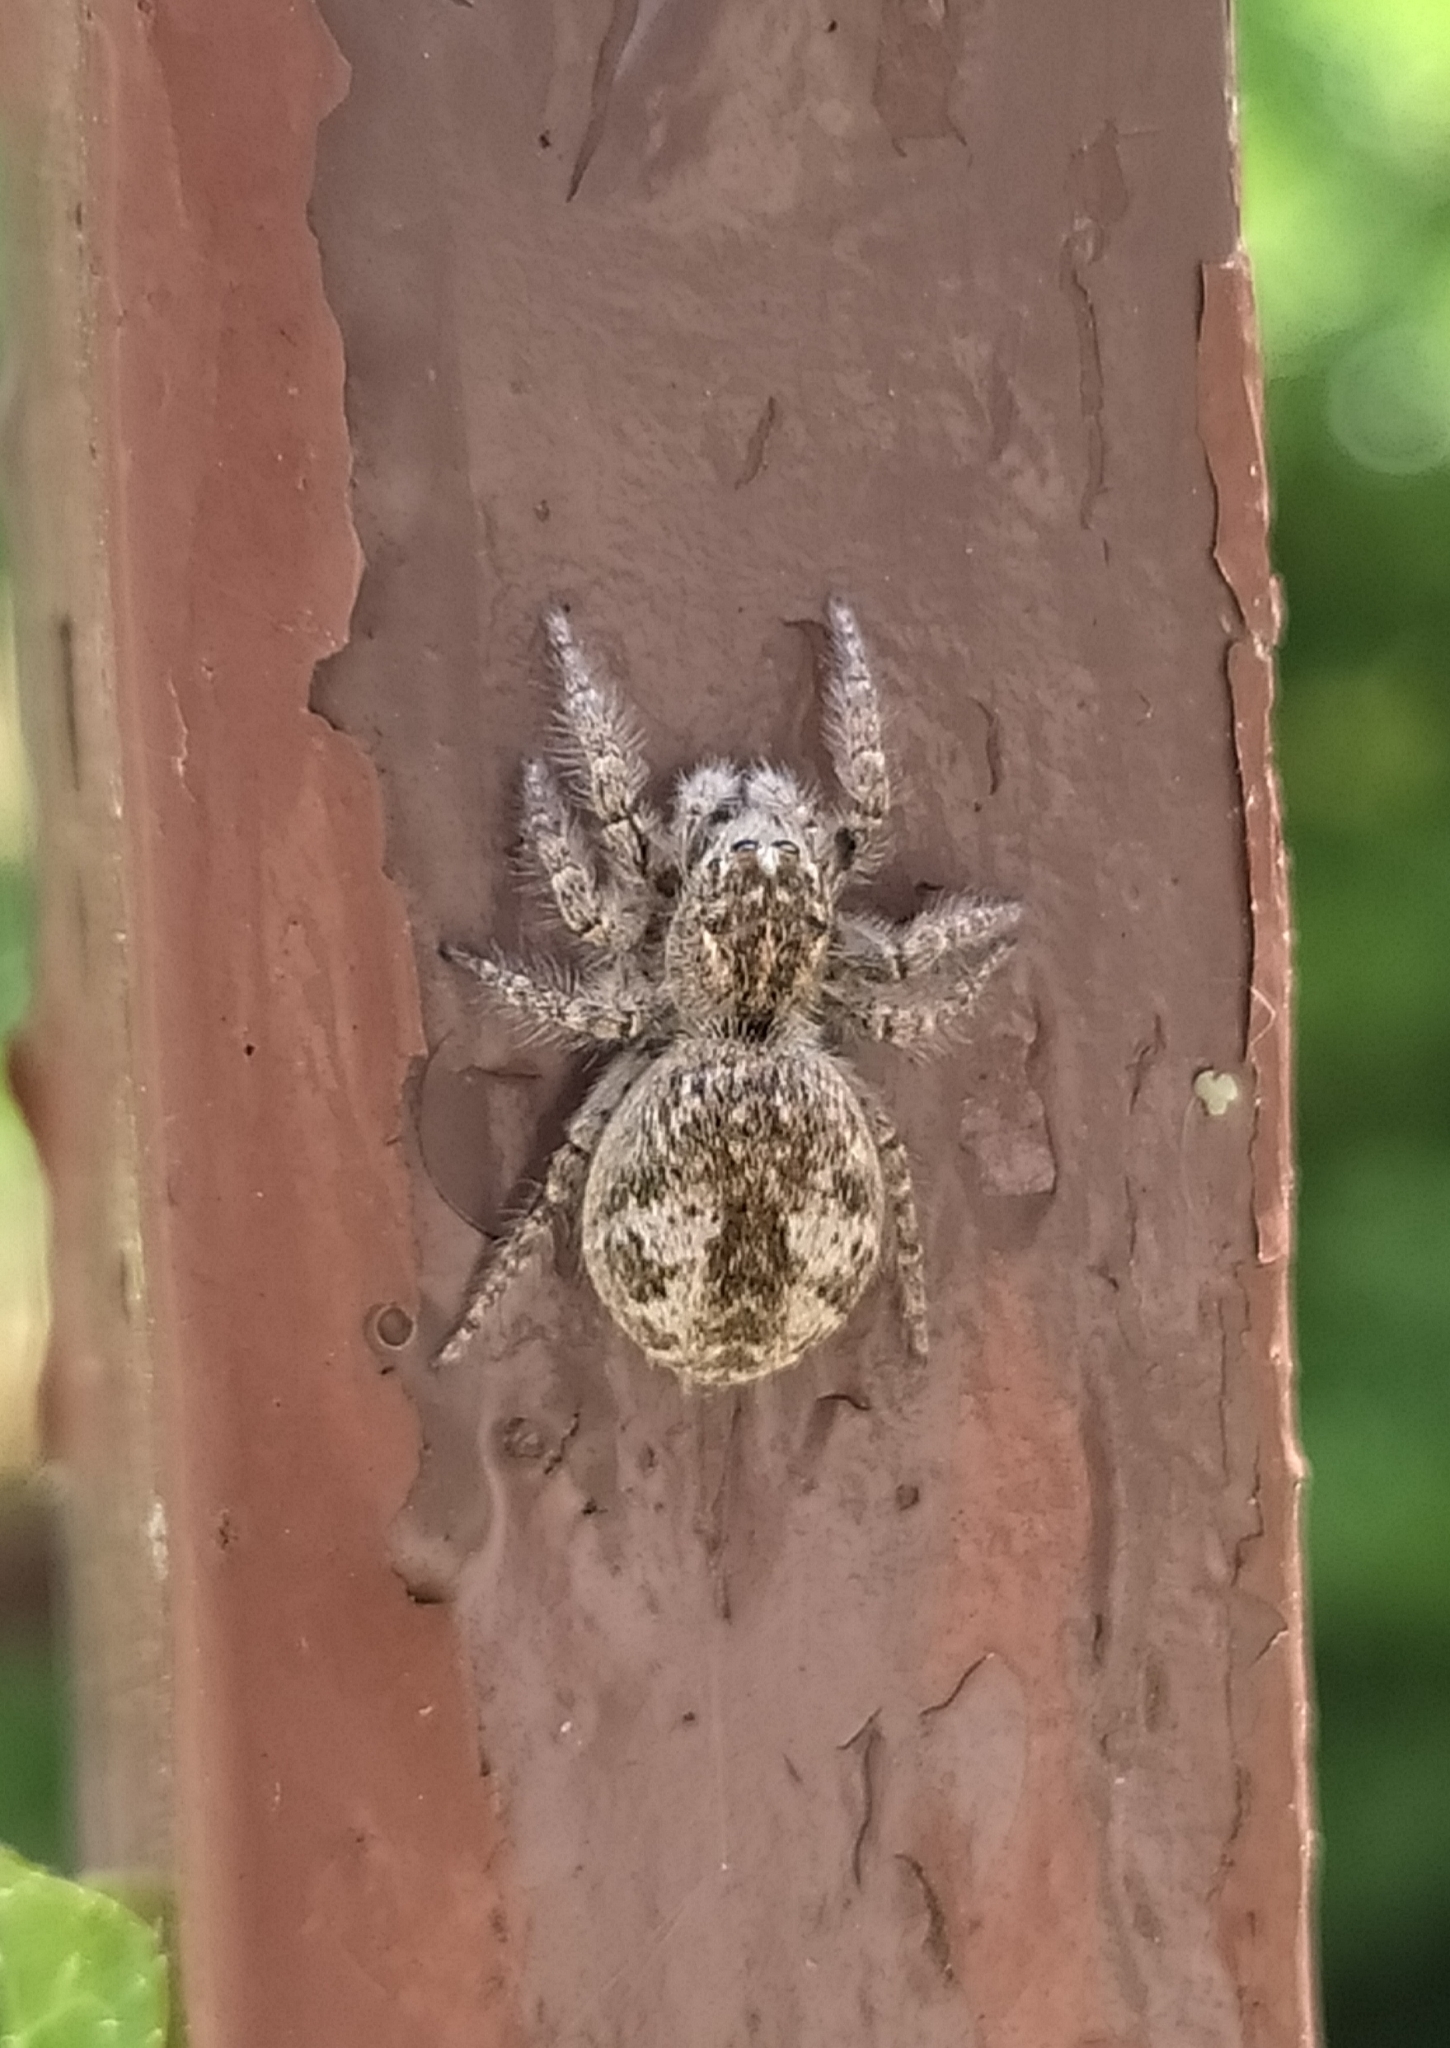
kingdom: Animalia
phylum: Arthropoda
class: Arachnida
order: Araneae
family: Salticidae
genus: Philaeus
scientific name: Philaeus chrysops
